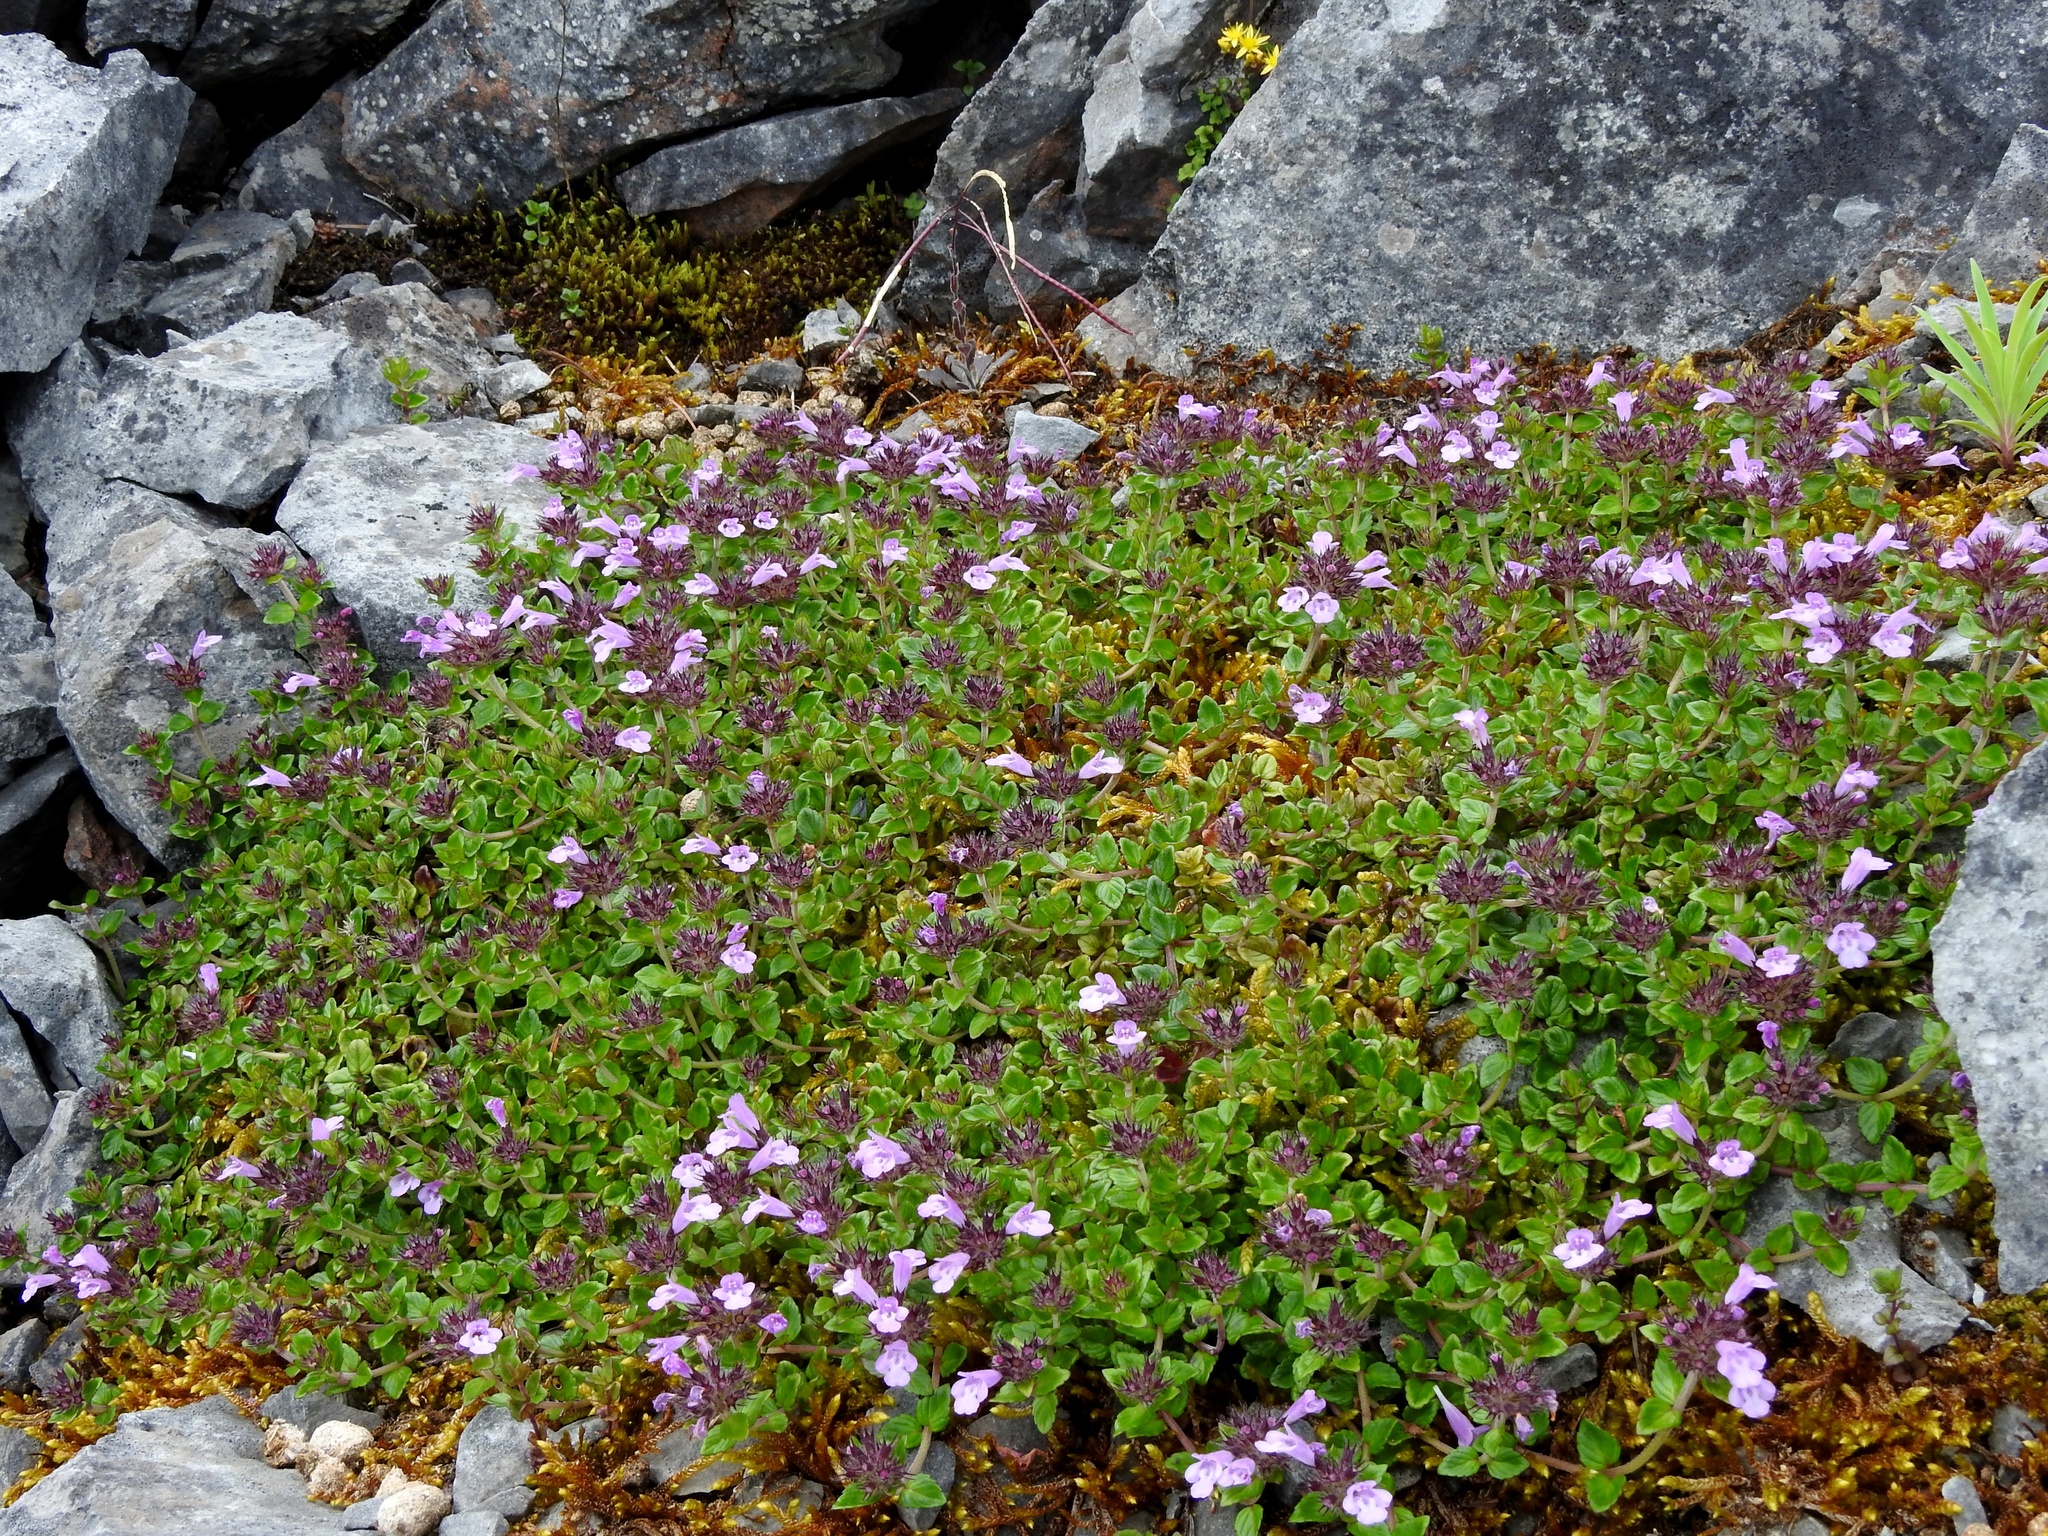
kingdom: Plantae
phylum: Tracheophyta
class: Magnoliopsida
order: Lamiales
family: Lamiaceae
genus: Clinopodium
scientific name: Clinopodium laxiflorum
